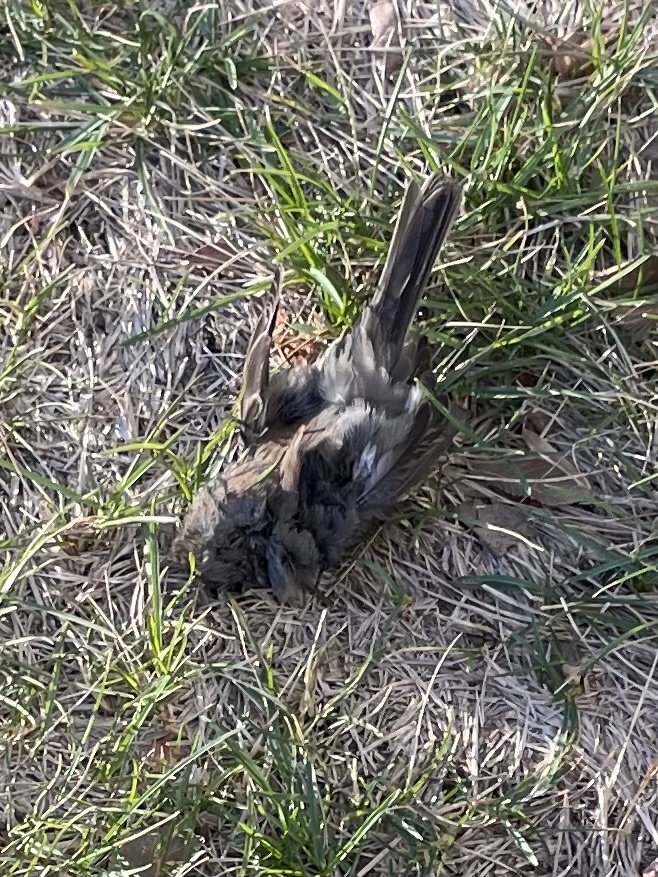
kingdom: Animalia
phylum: Chordata
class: Aves
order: Passeriformes
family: Passerellidae
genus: Junco
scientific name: Junco hyemalis
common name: Dark-eyed junco
